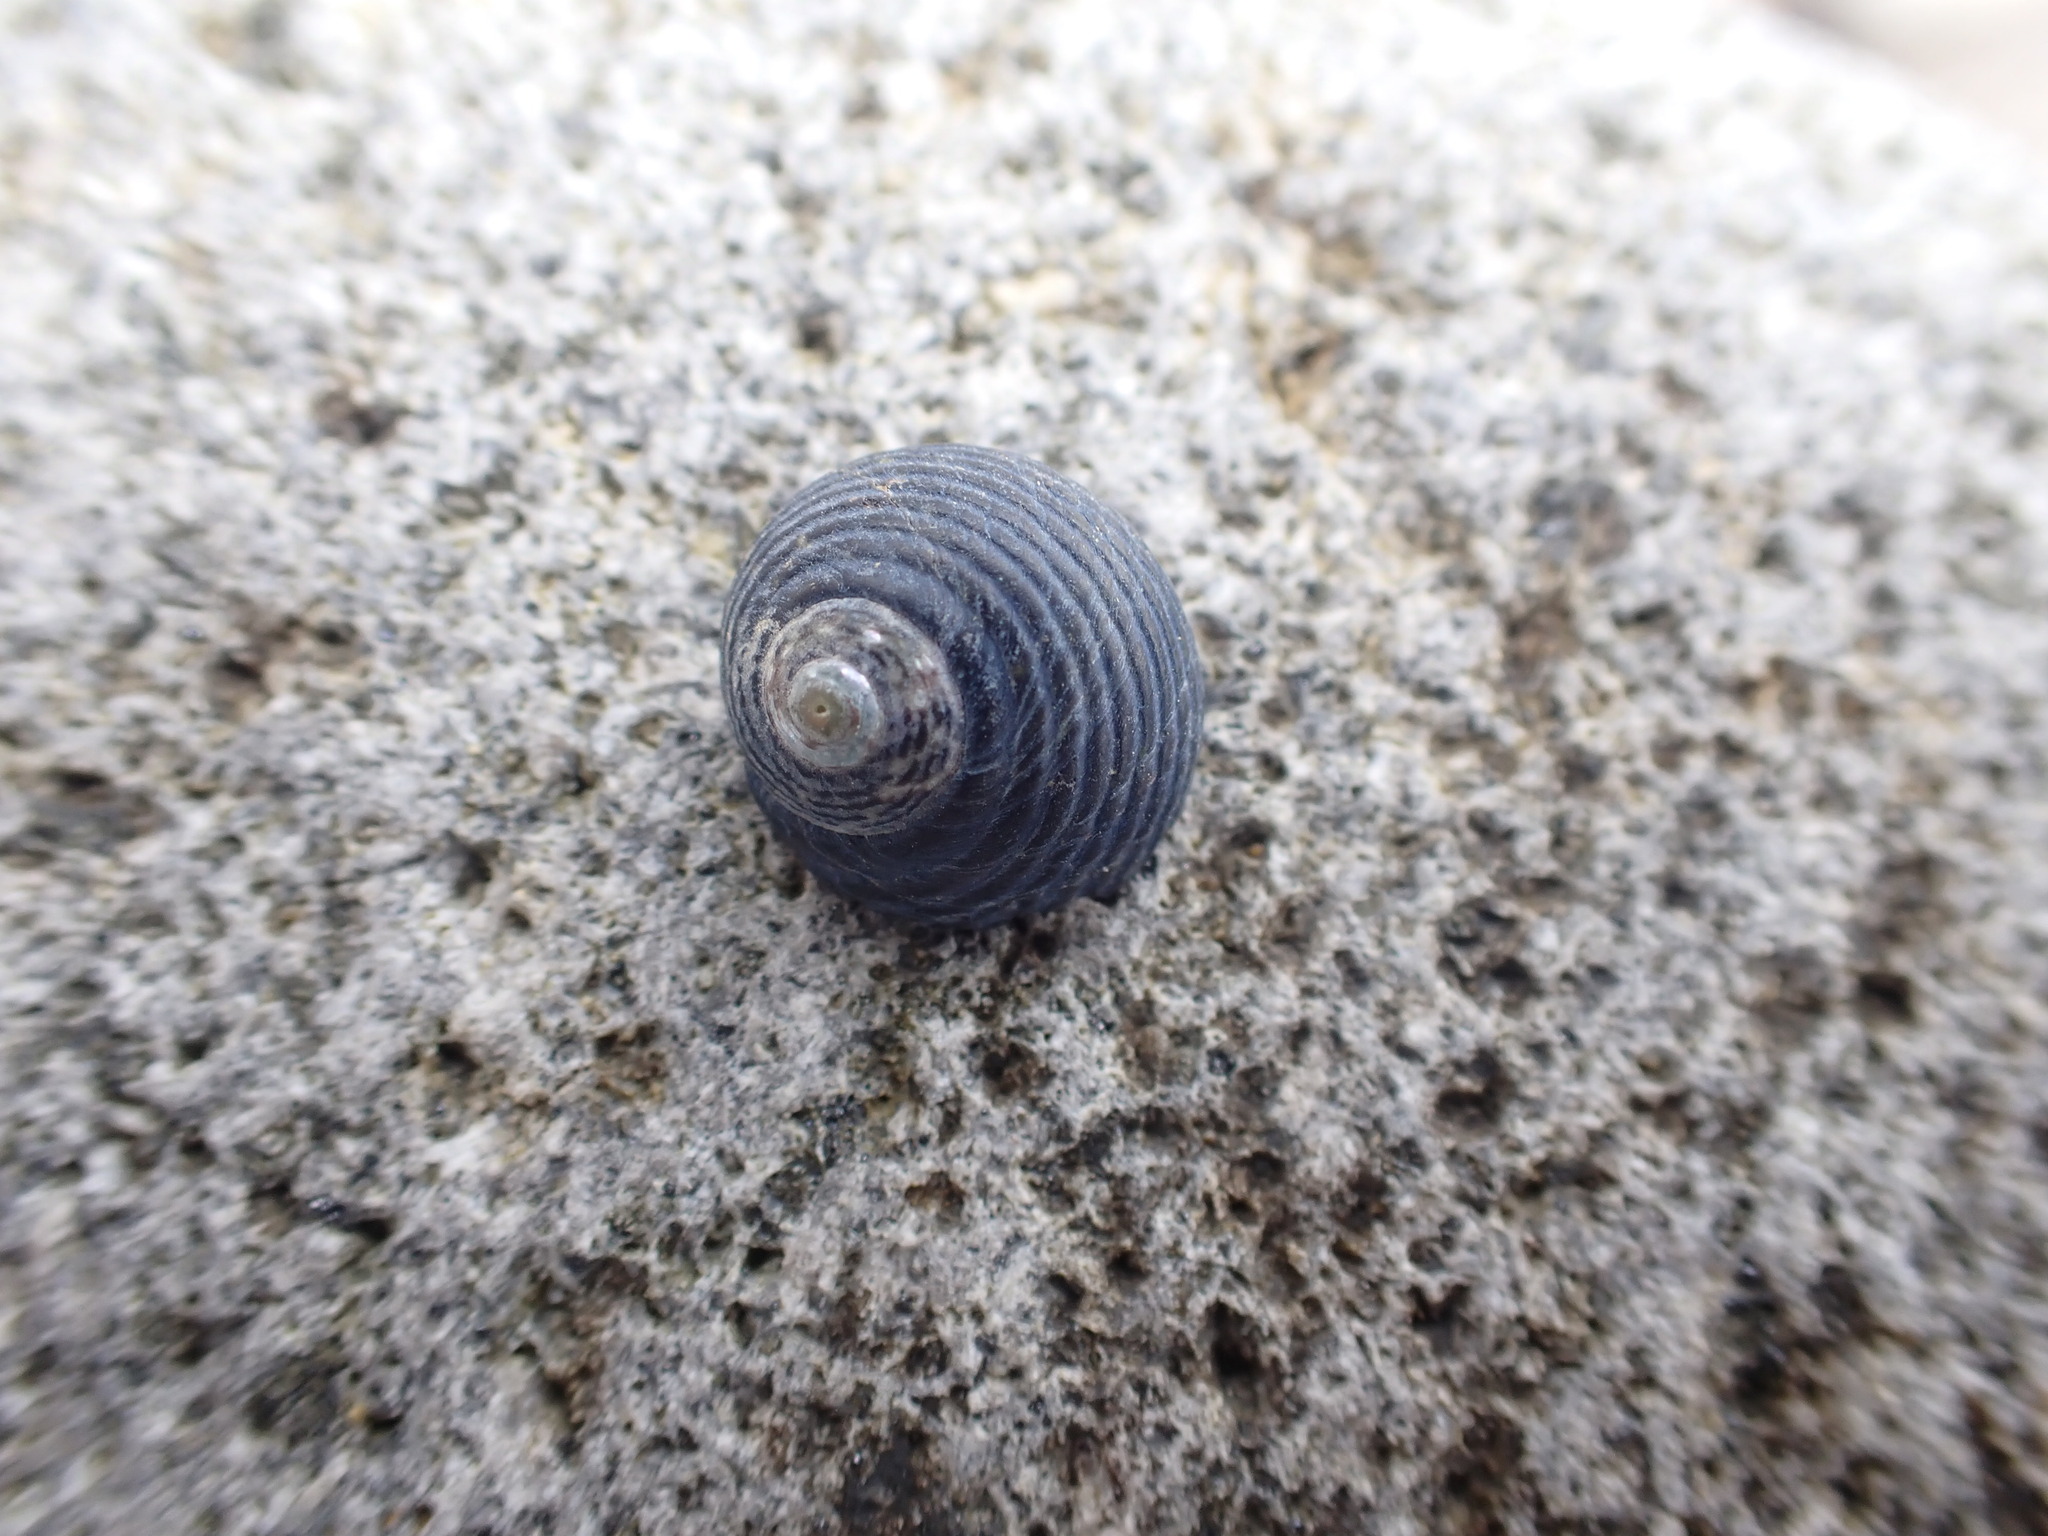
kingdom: Animalia
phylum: Mollusca
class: Gastropoda
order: Trochida
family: Trochidae
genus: Diloma
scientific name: Diloma zelandicum
